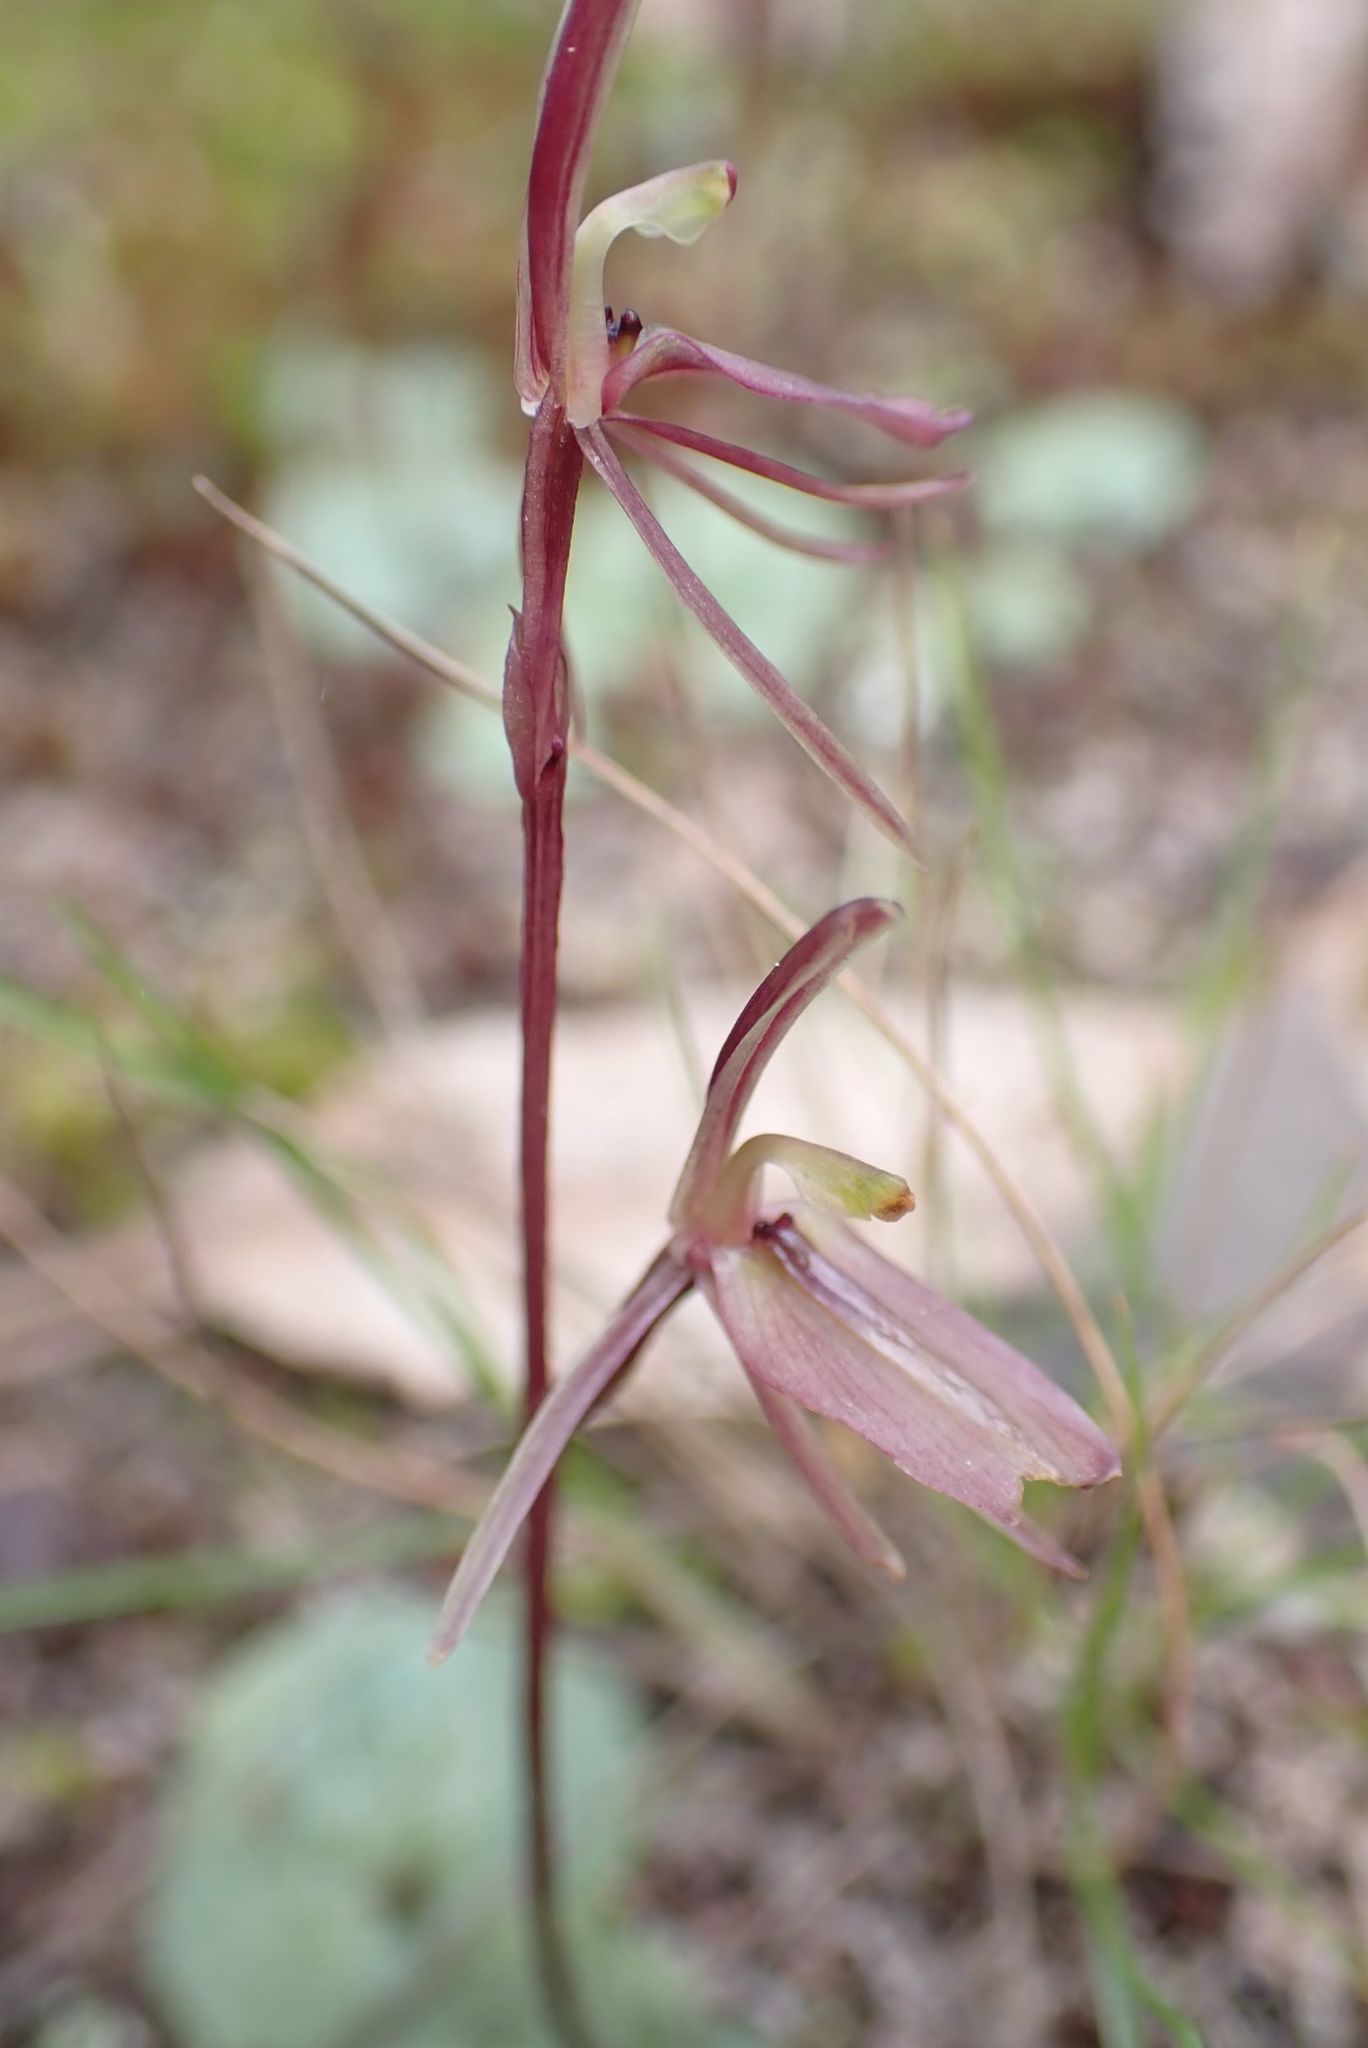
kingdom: Plantae
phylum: Tracheophyta
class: Liliopsida
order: Asparagales
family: Orchidaceae
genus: Cyrtostylis
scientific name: Cyrtostylis reniformis
